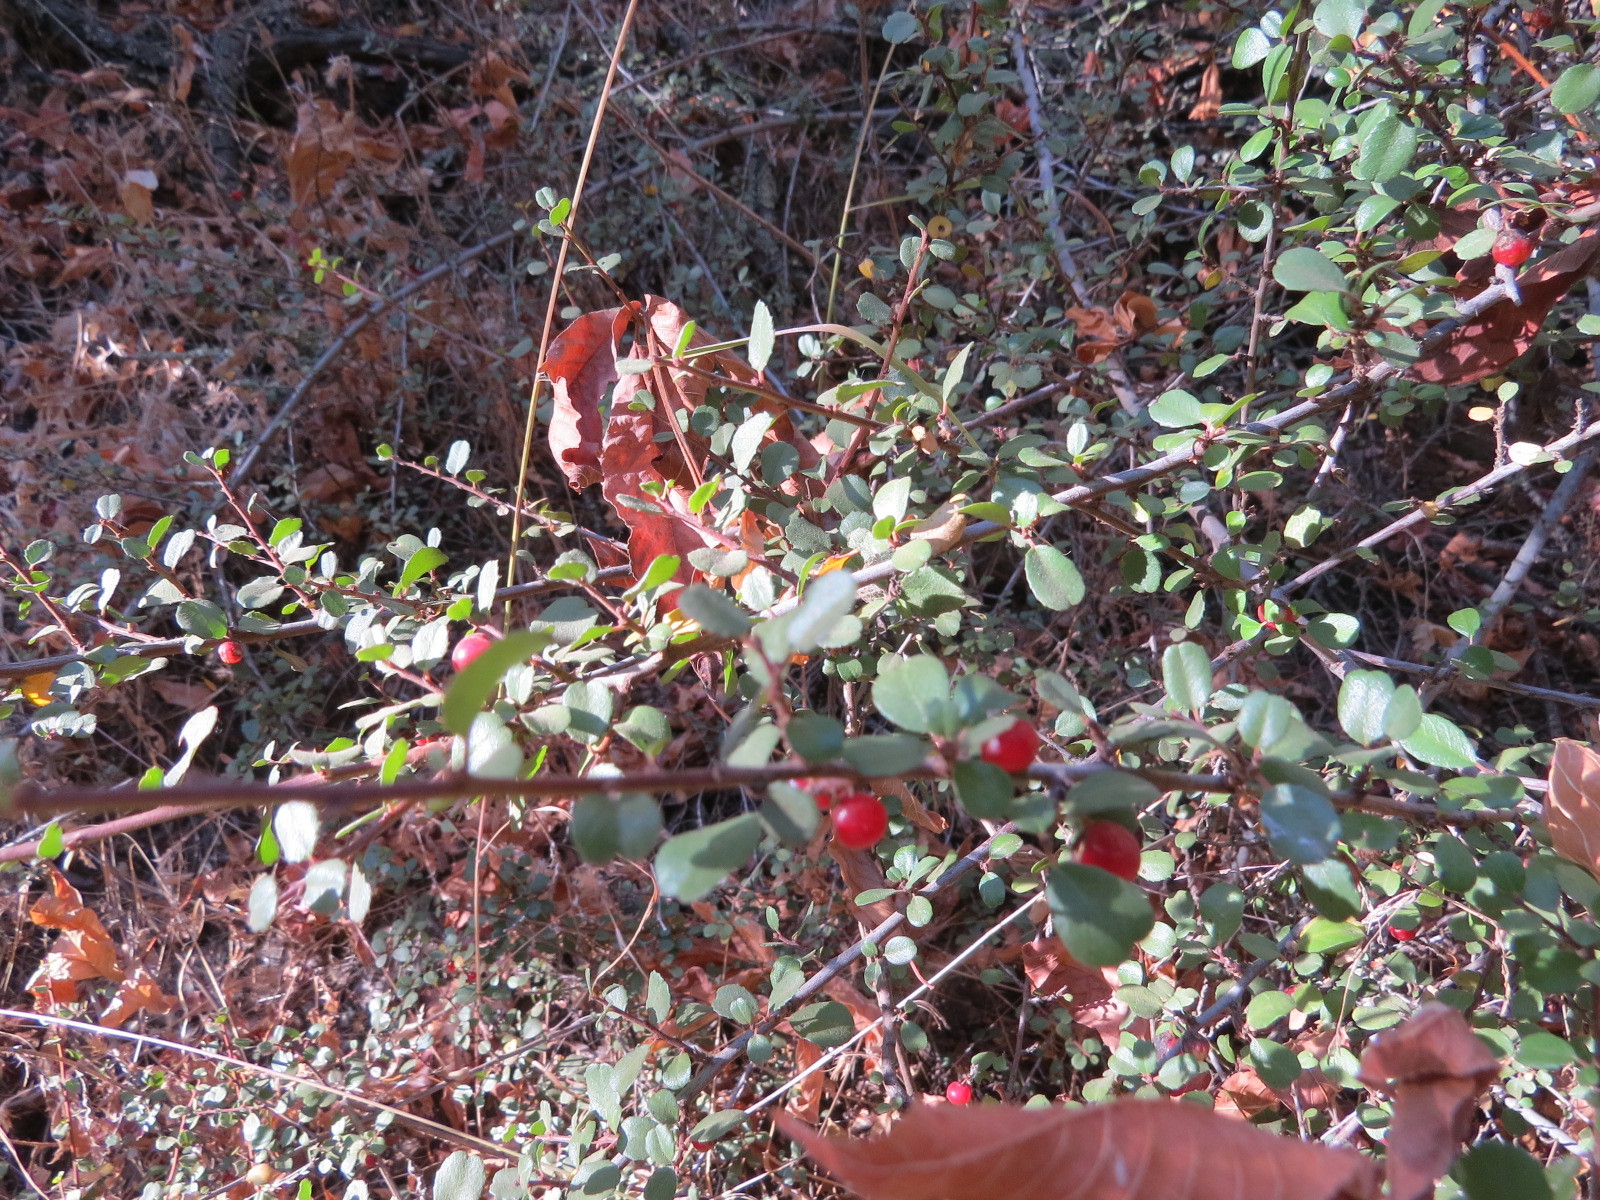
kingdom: Plantae
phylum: Tracheophyta
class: Magnoliopsida
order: Rosales
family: Rhamnaceae
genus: Endotropis
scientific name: Endotropis crocea
